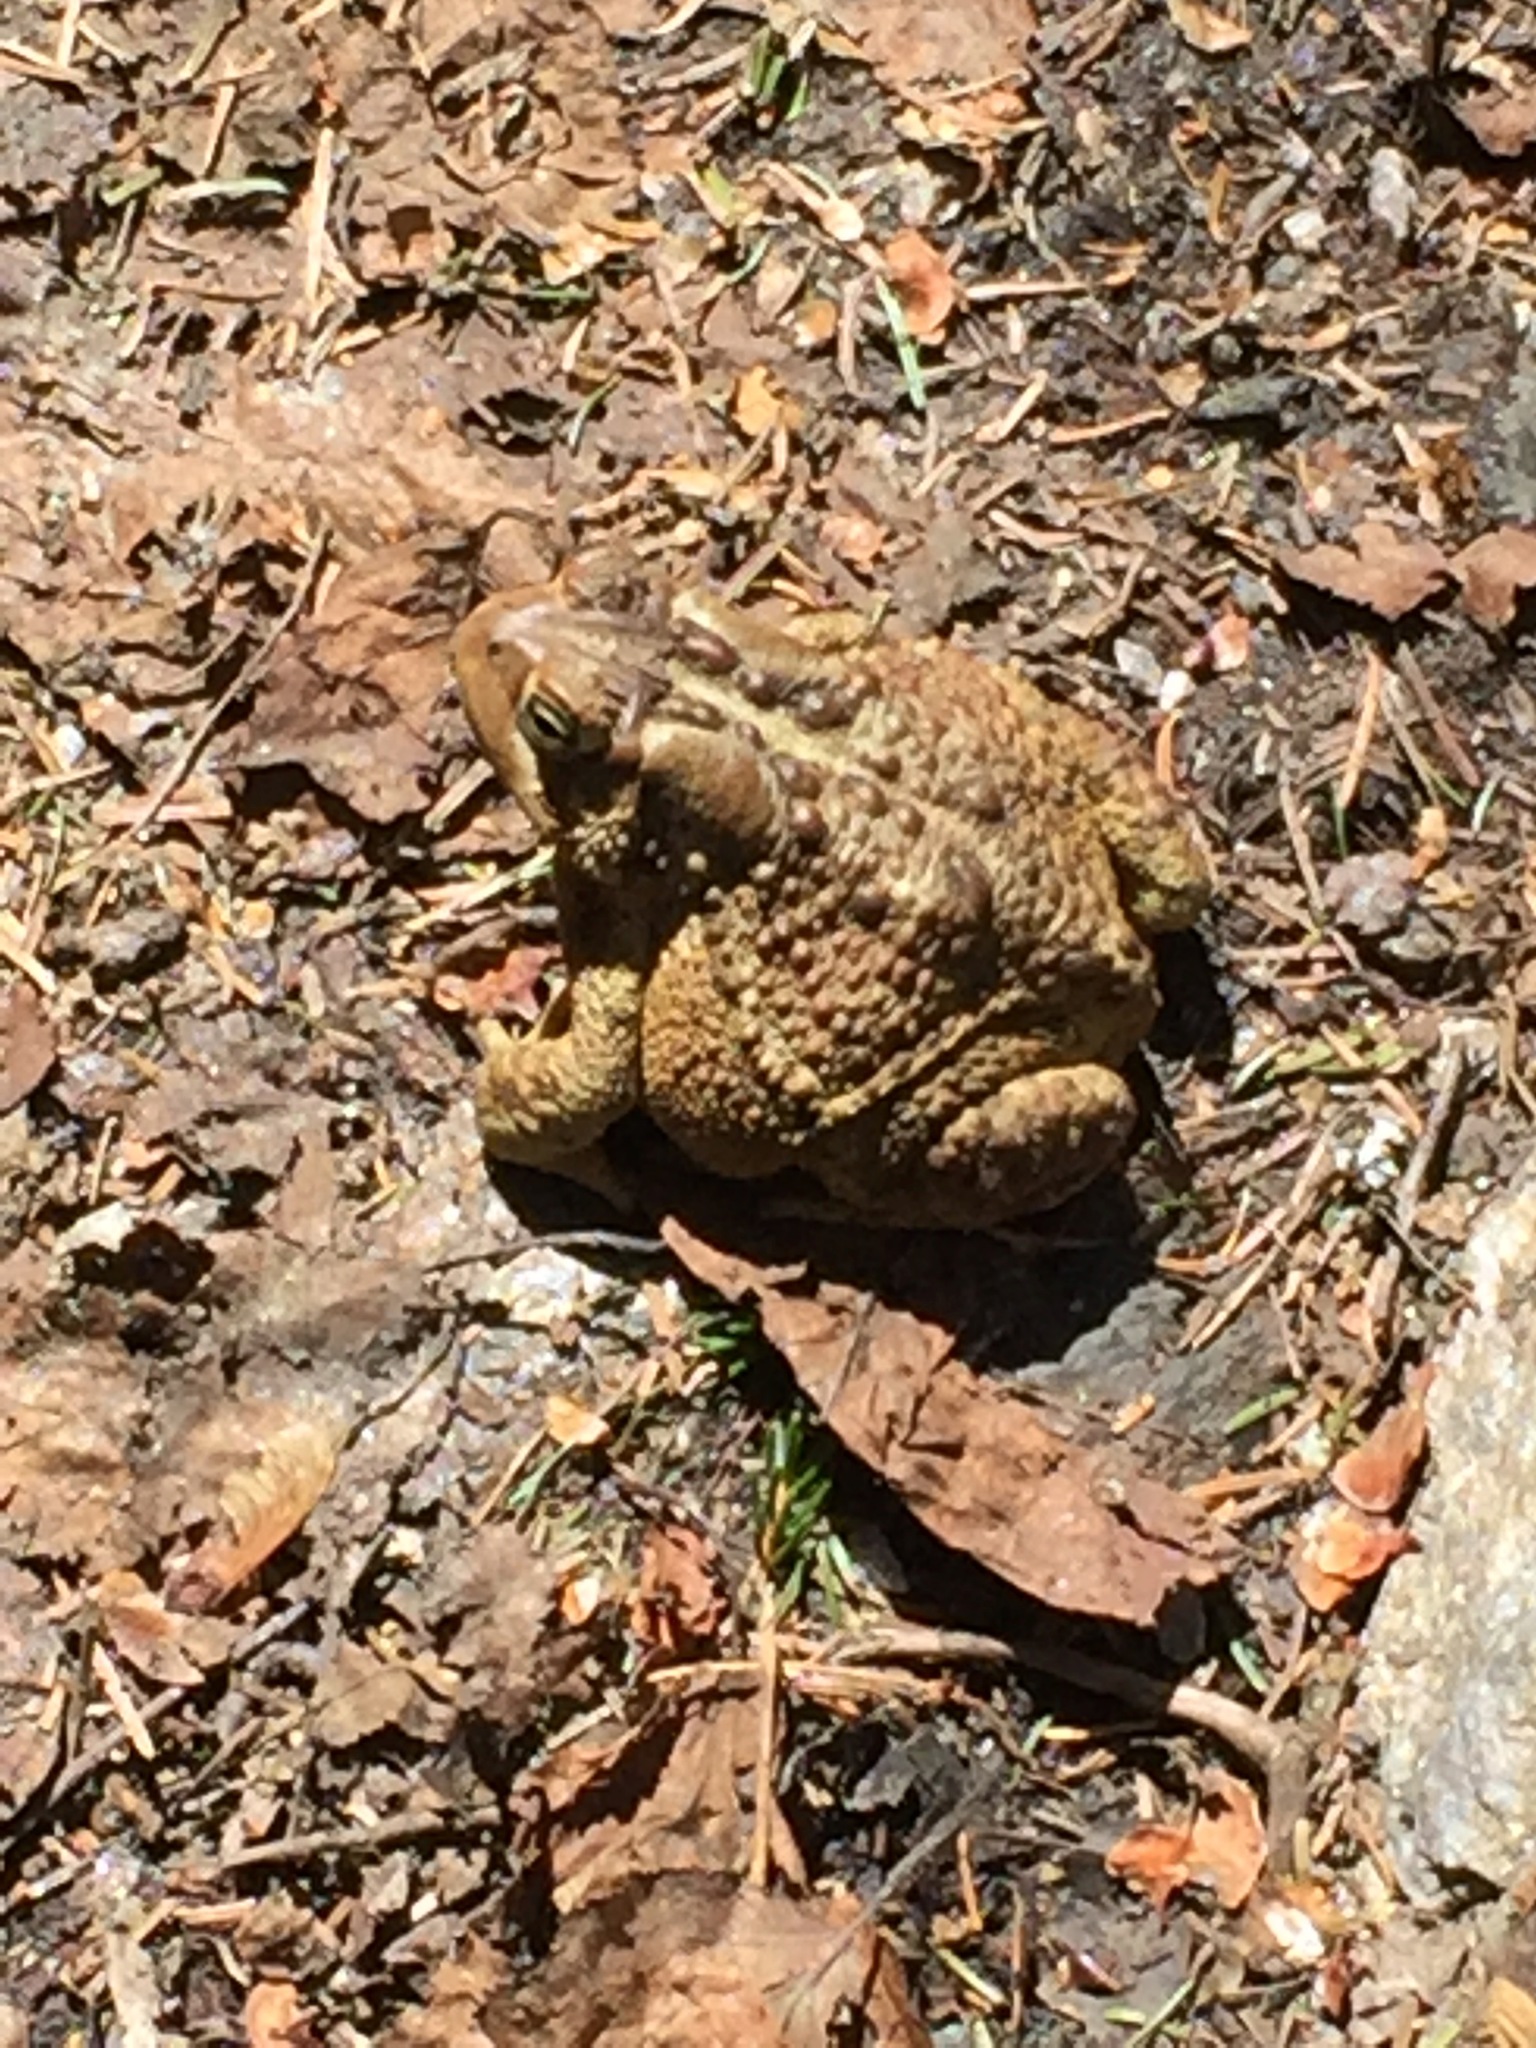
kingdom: Animalia
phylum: Chordata
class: Amphibia
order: Anura
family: Bufonidae
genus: Anaxyrus
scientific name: Anaxyrus americanus
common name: American toad
